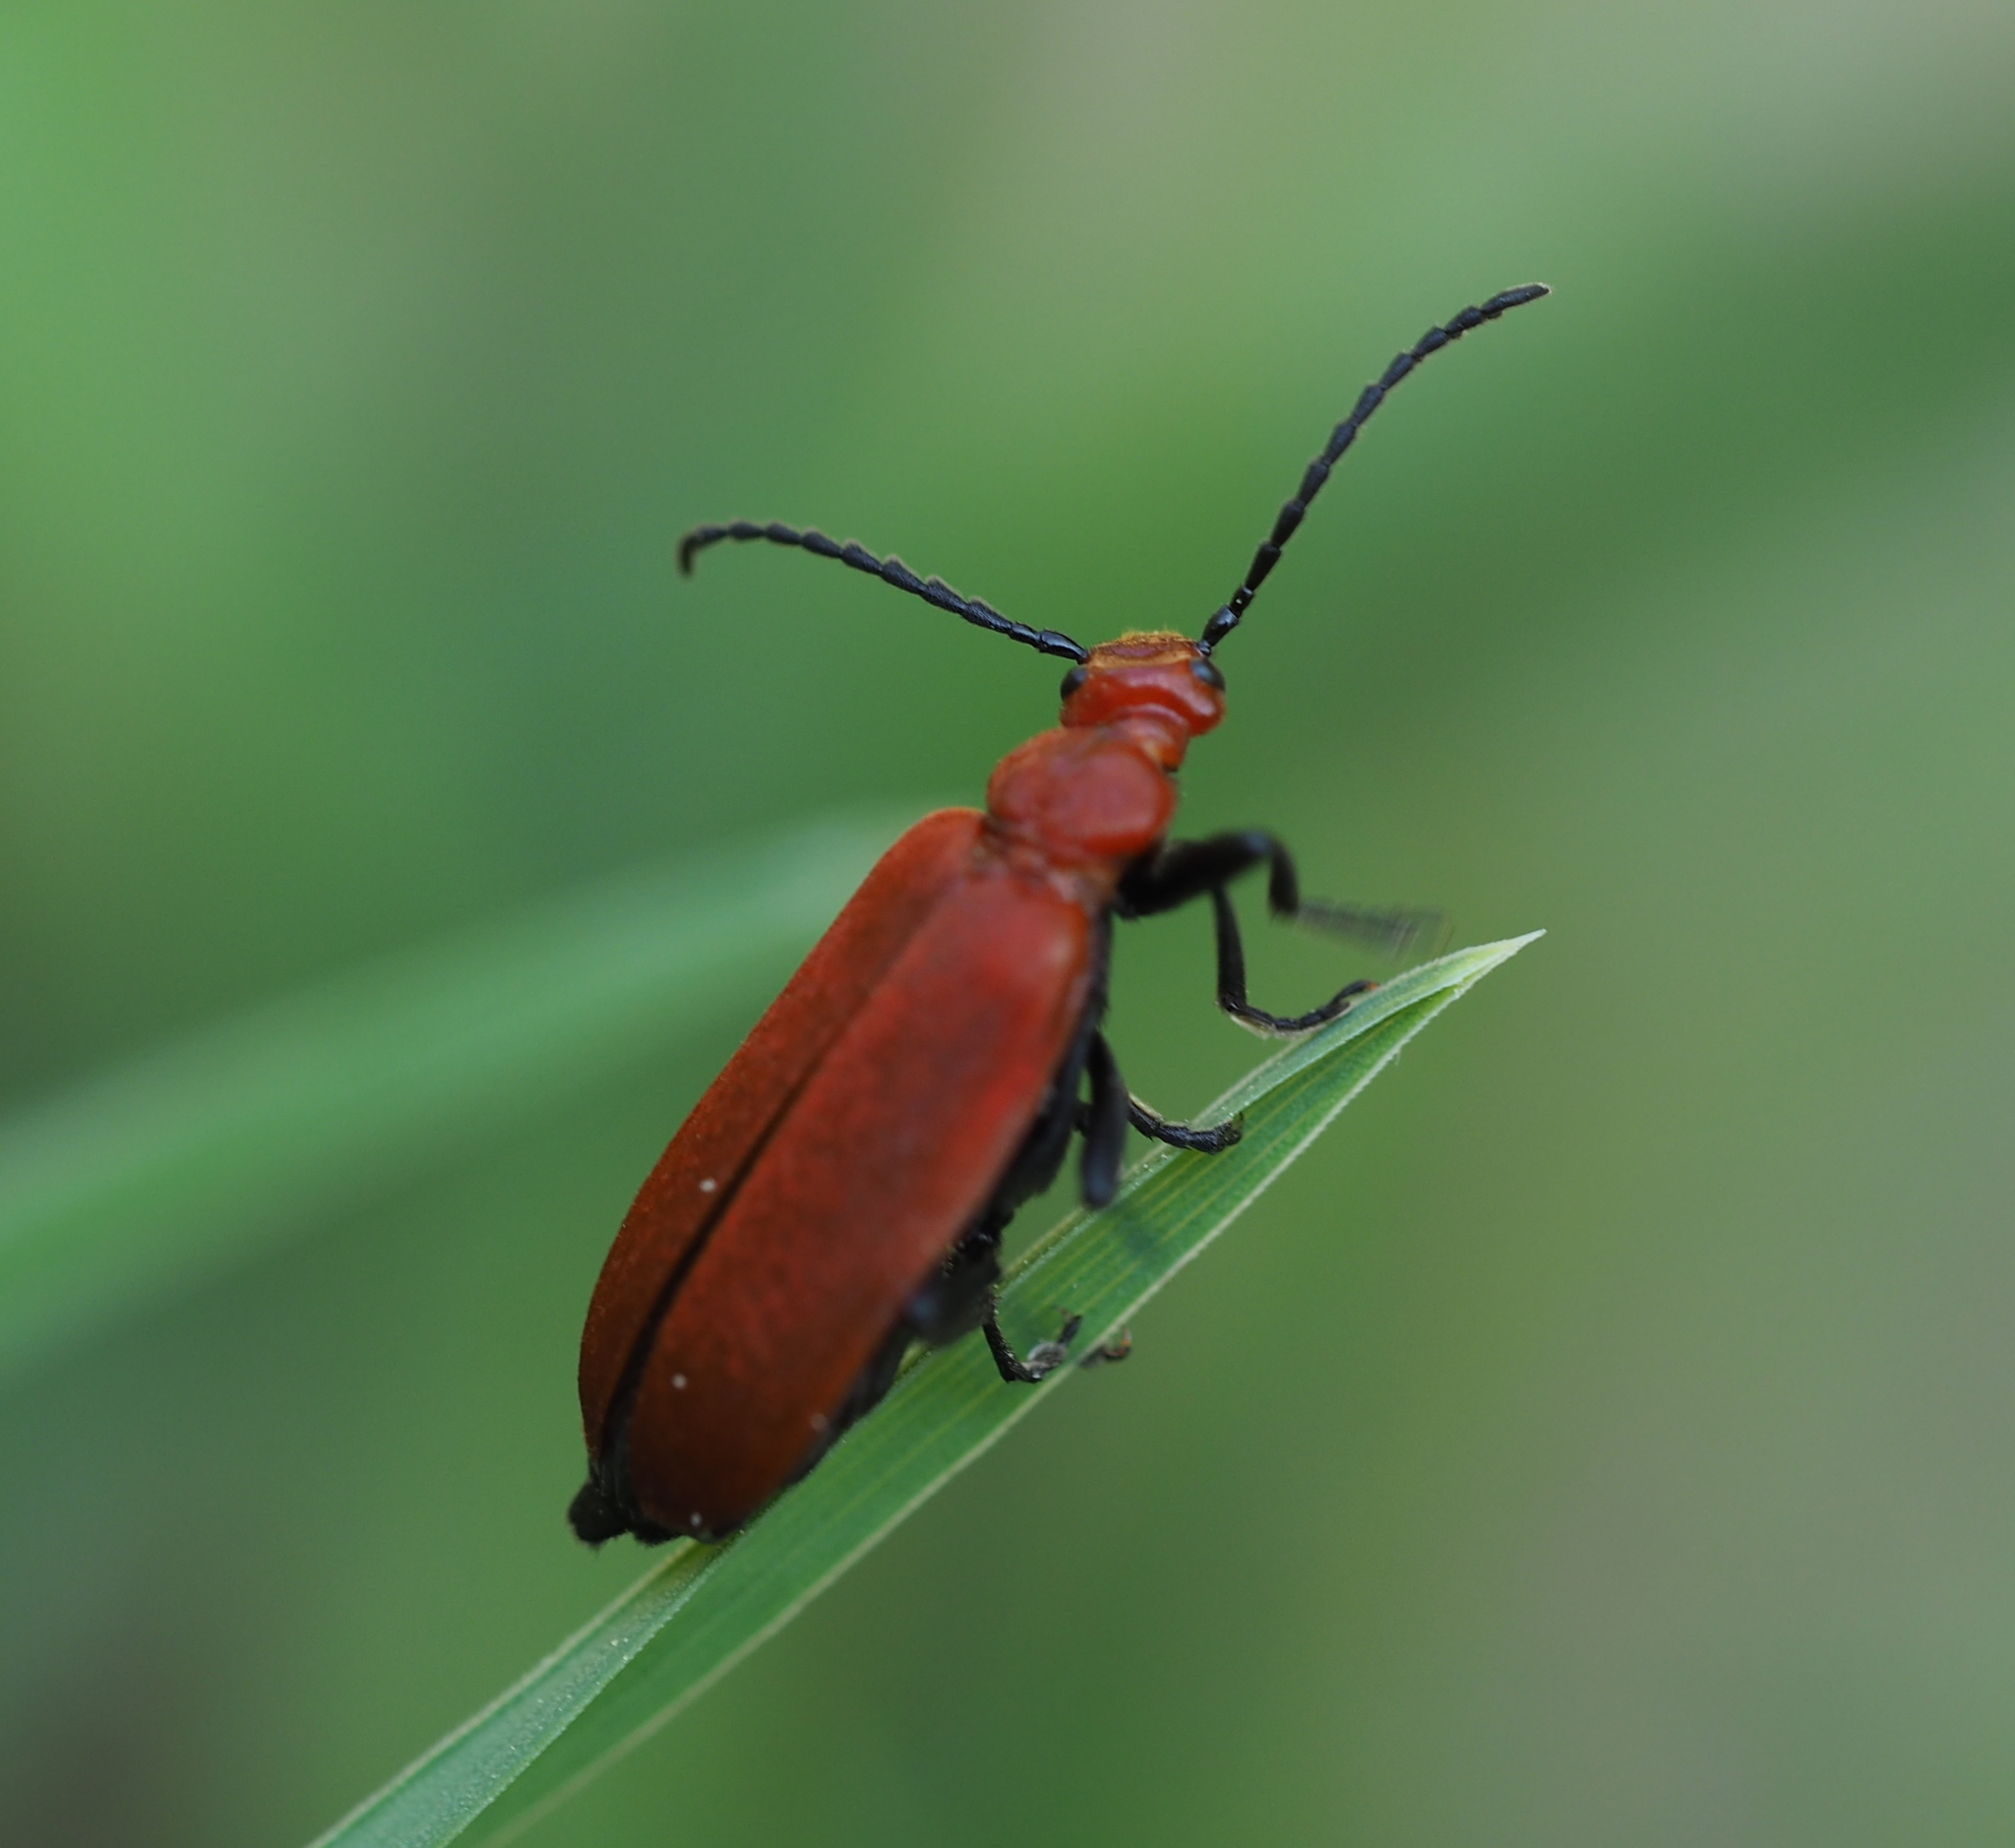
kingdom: Animalia
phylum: Arthropoda
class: Insecta
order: Coleoptera
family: Pyrochroidae
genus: Pyrochroa
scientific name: Pyrochroa serraticornis
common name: Red-headed cardinal beetle
